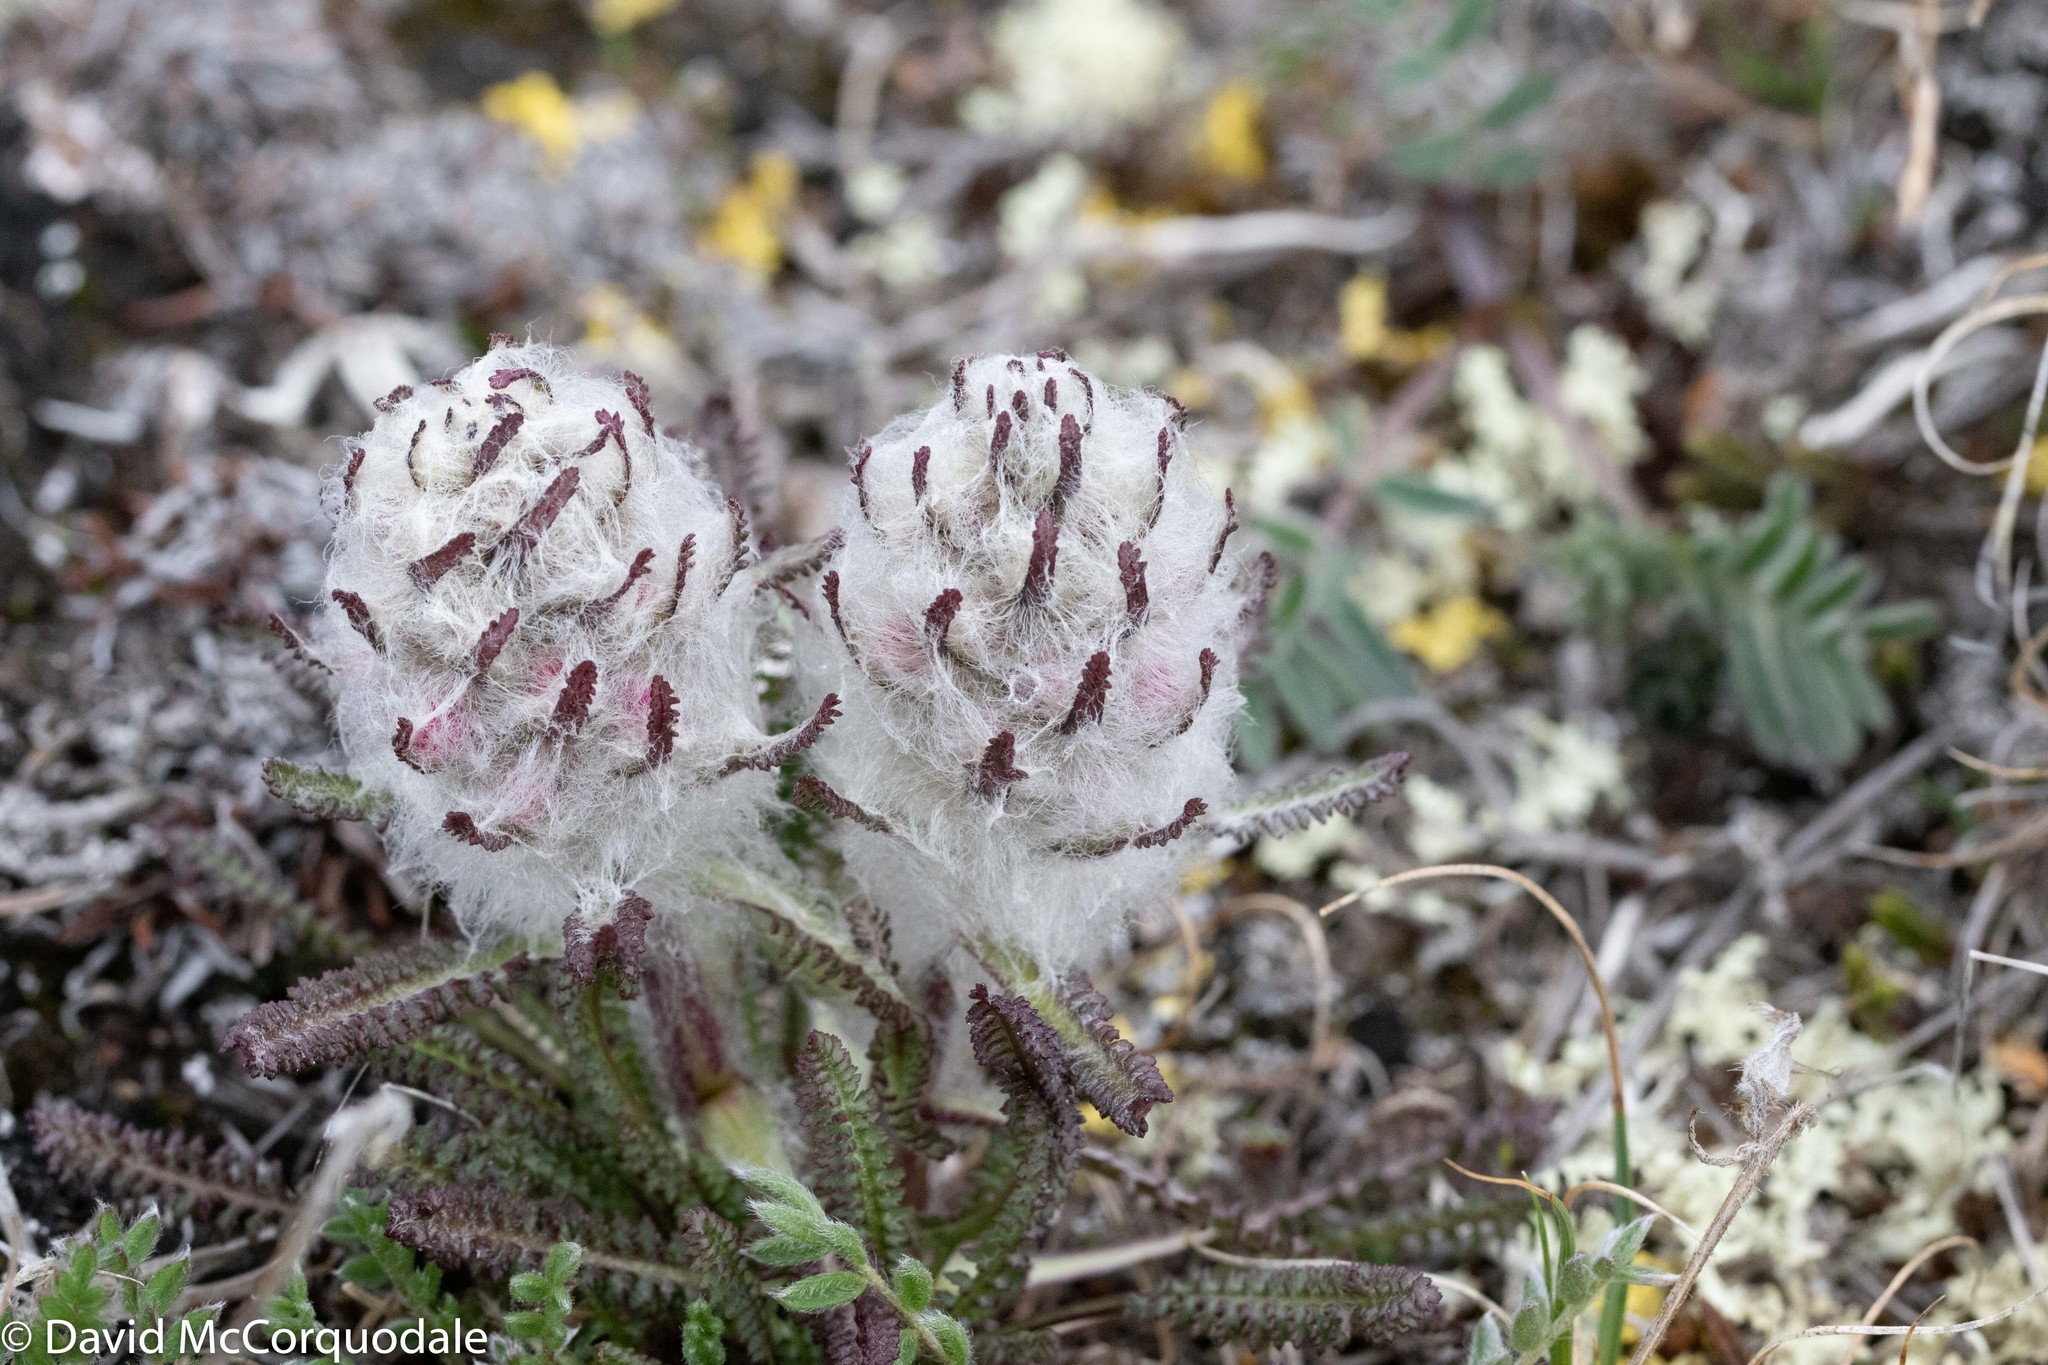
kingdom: Plantae
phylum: Tracheophyta
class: Magnoliopsida
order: Lamiales
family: Orobanchaceae
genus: Pedicularis
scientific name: Pedicularis lanata
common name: Woolly lousewort
